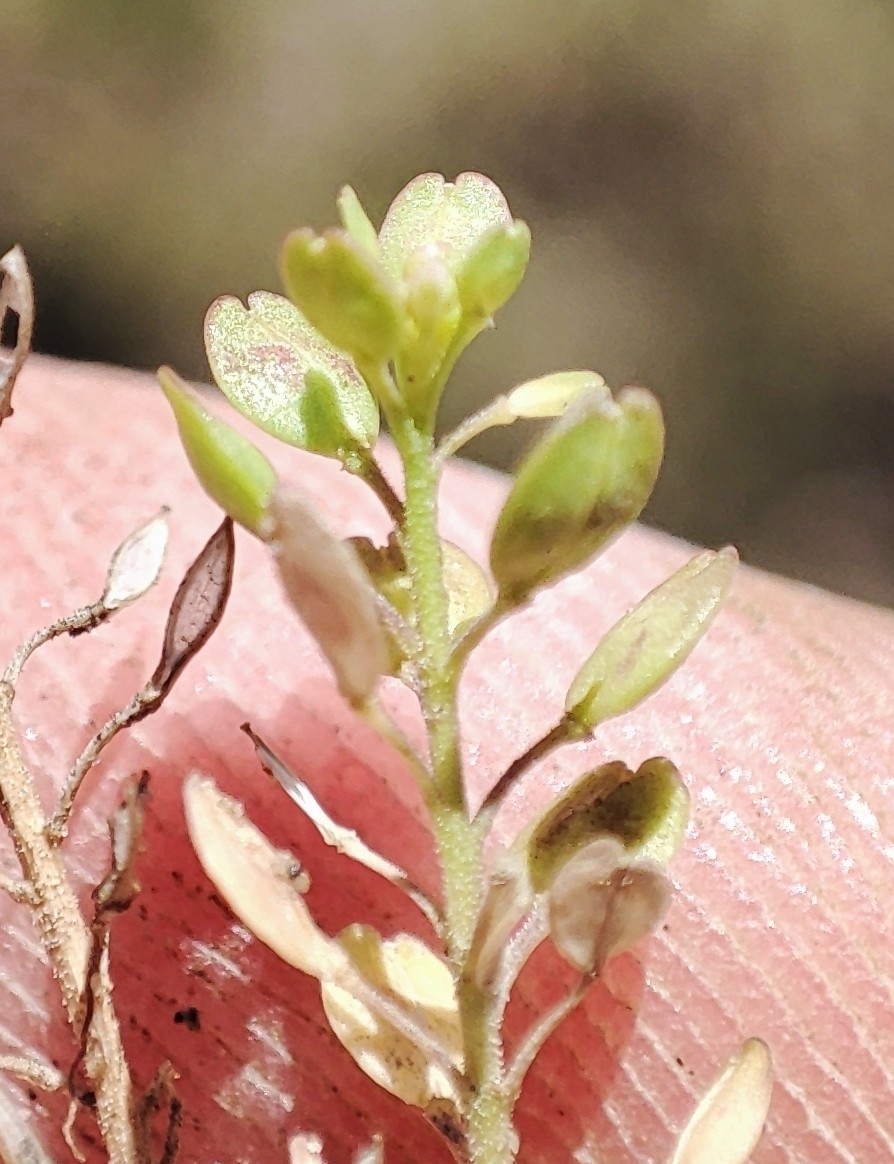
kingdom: Plantae
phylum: Tracheophyta
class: Magnoliopsida
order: Brassicales
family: Brassicaceae
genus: Lepidium
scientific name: Lepidium densiflorum
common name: Miner's pepperwort
